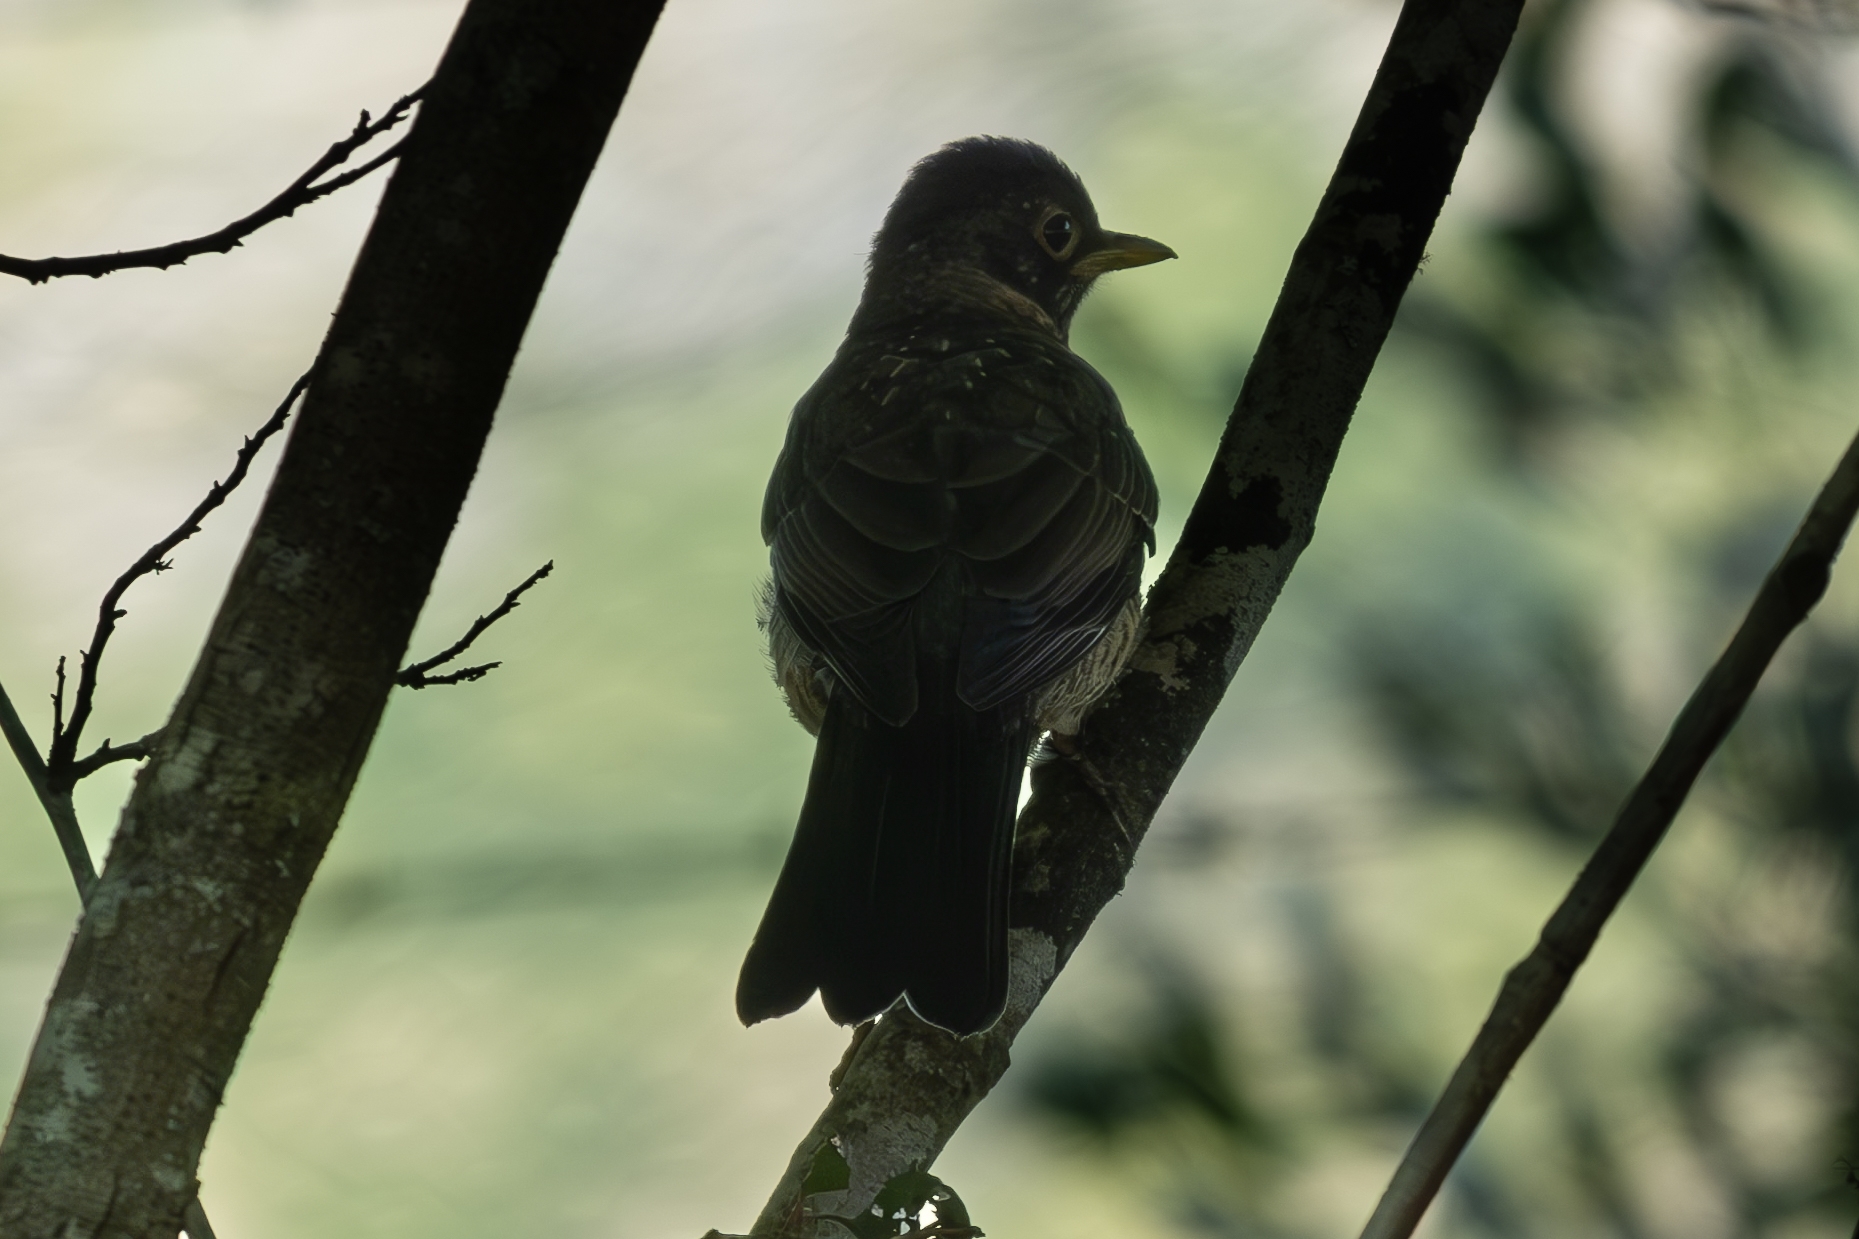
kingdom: Animalia
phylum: Chordata
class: Aves
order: Passeriformes
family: Turdidae
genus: Turdus
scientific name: Turdus falcklandii
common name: Austral thrush
